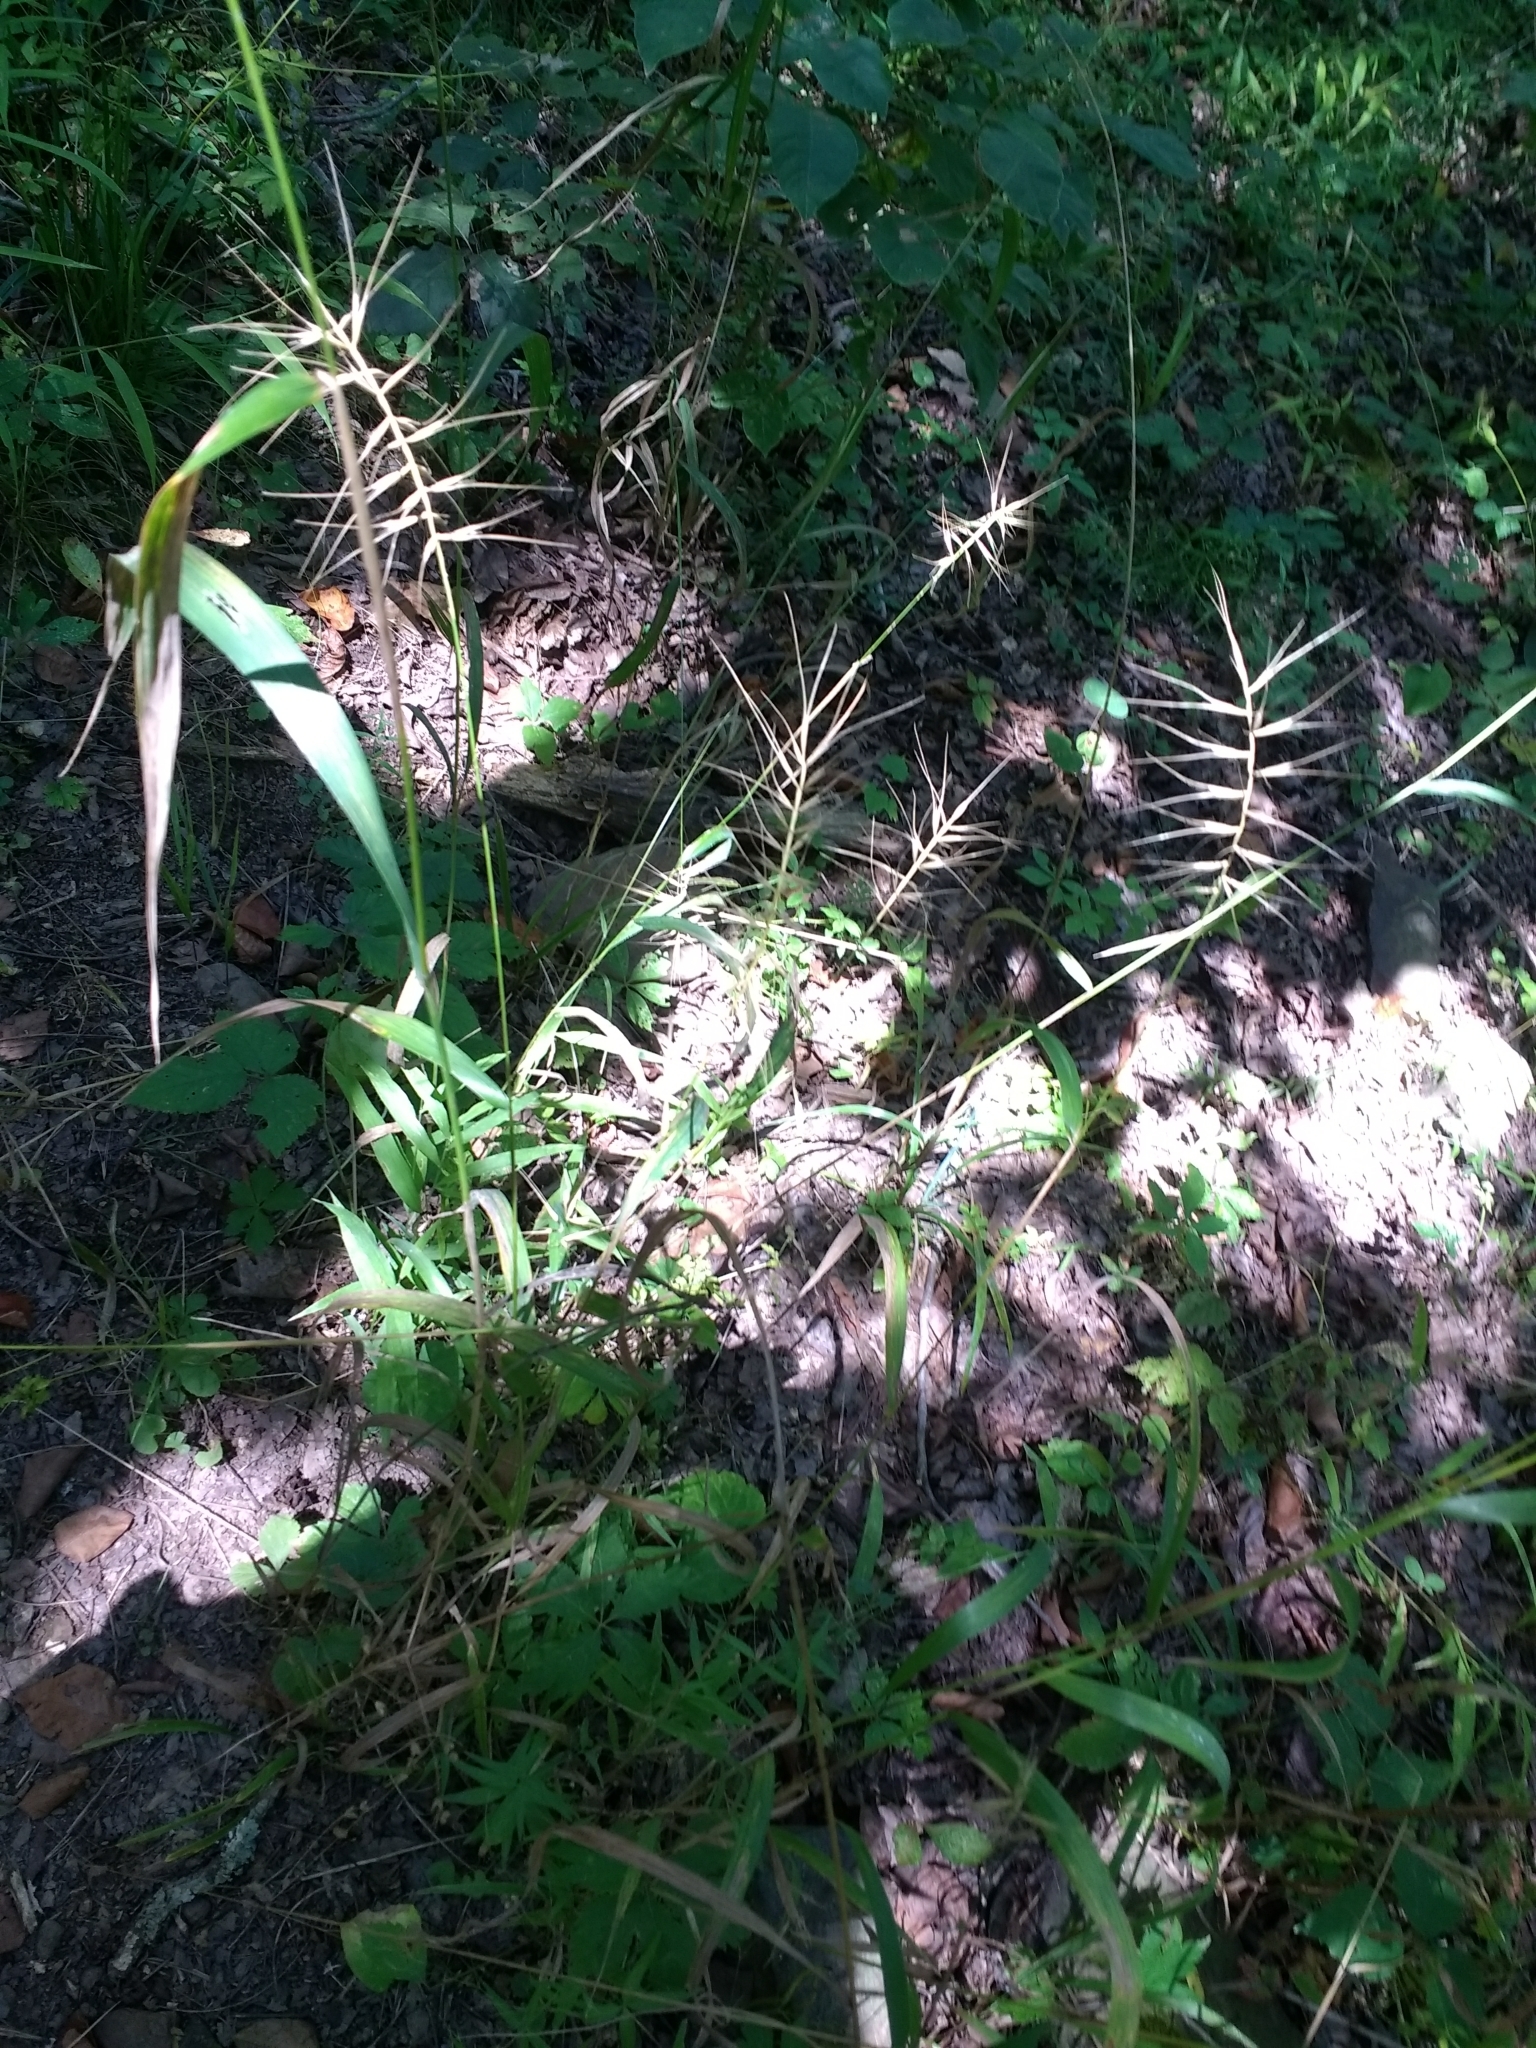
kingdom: Plantae
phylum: Tracheophyta
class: Liliopsida
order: Poales
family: Poaceae
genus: Elymus
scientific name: Elymus hystrix
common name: Bottlebrush grass
